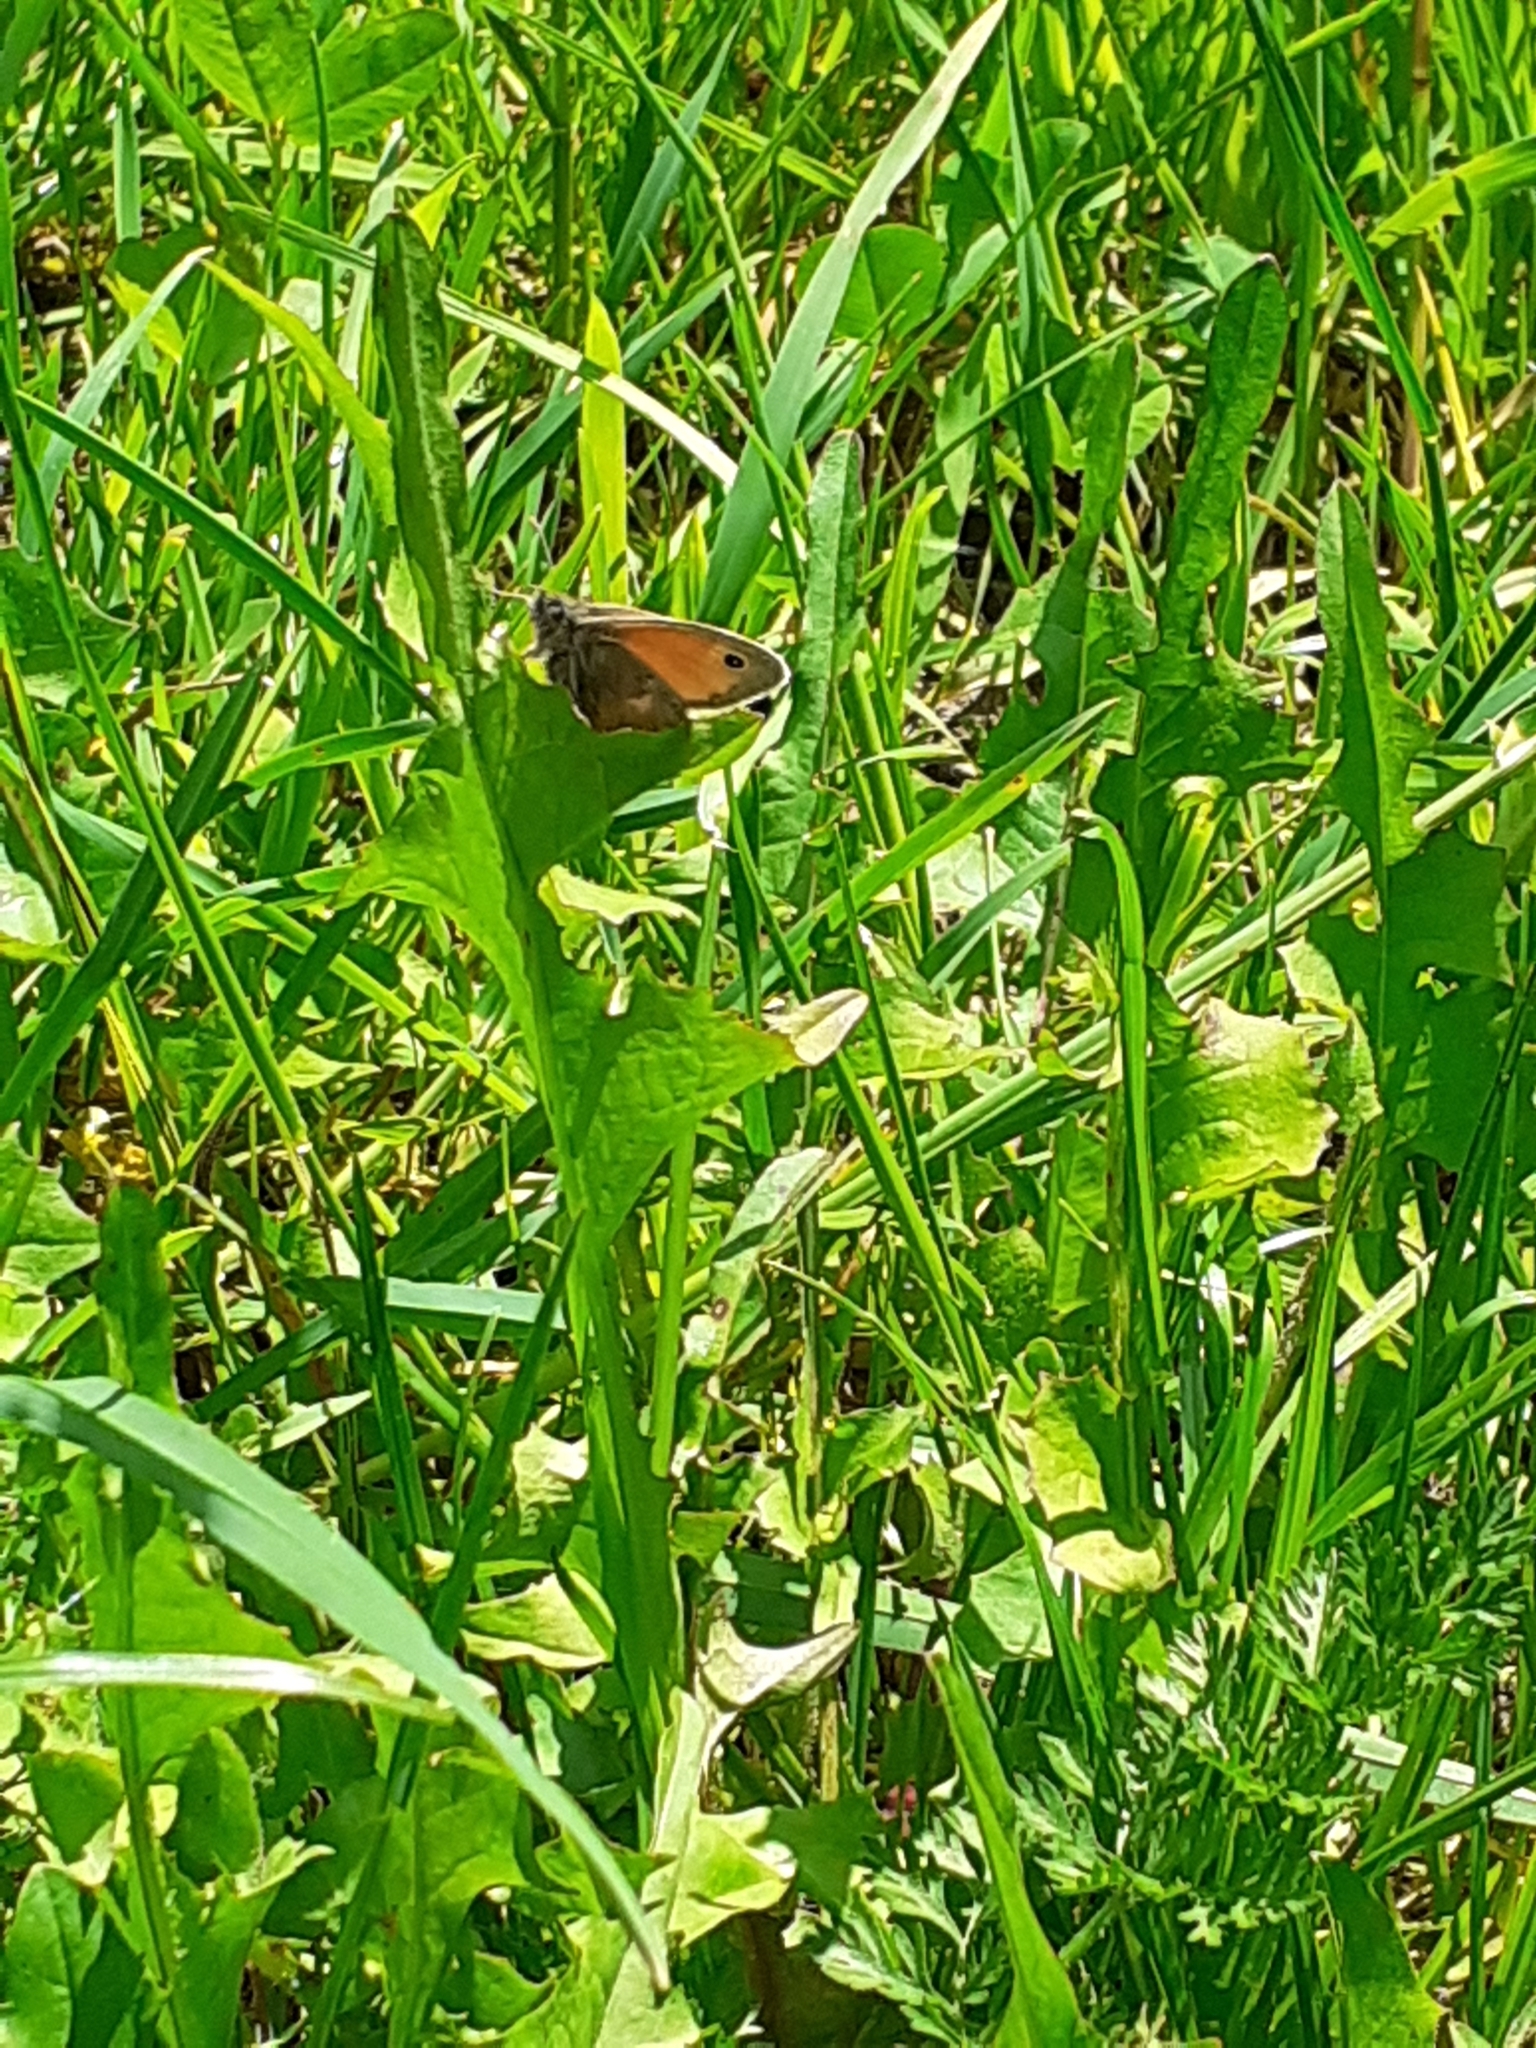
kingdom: Animalia
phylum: Arthropoda
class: Insecta
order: Lepidoptera
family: Nymphalidae
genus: Coenonympha
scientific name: Coenonympha pamphilus
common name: Small heath
